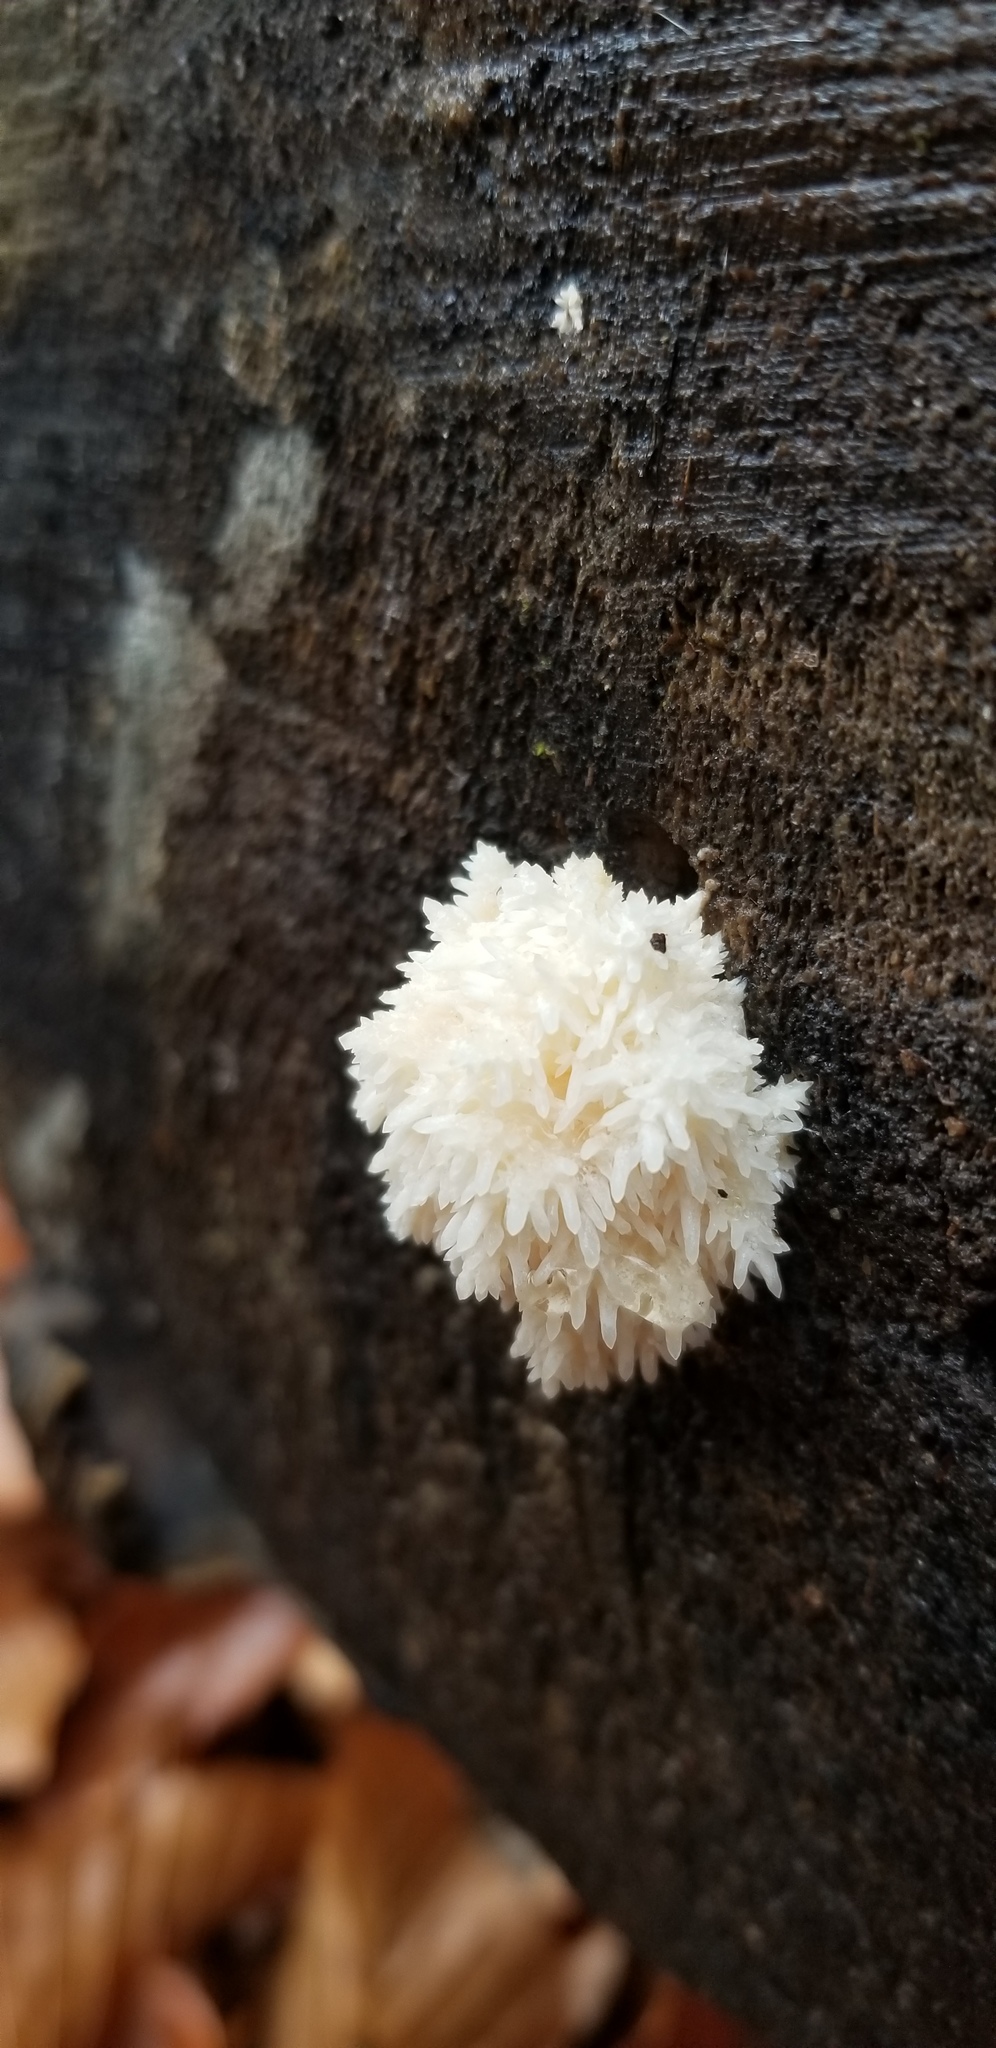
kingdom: Fungi
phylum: Basidiomycota
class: Agaricomycetes
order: Russulales
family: Hericiaceae
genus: Hericium
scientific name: Hericium erinaceus
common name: Bearded tooth
